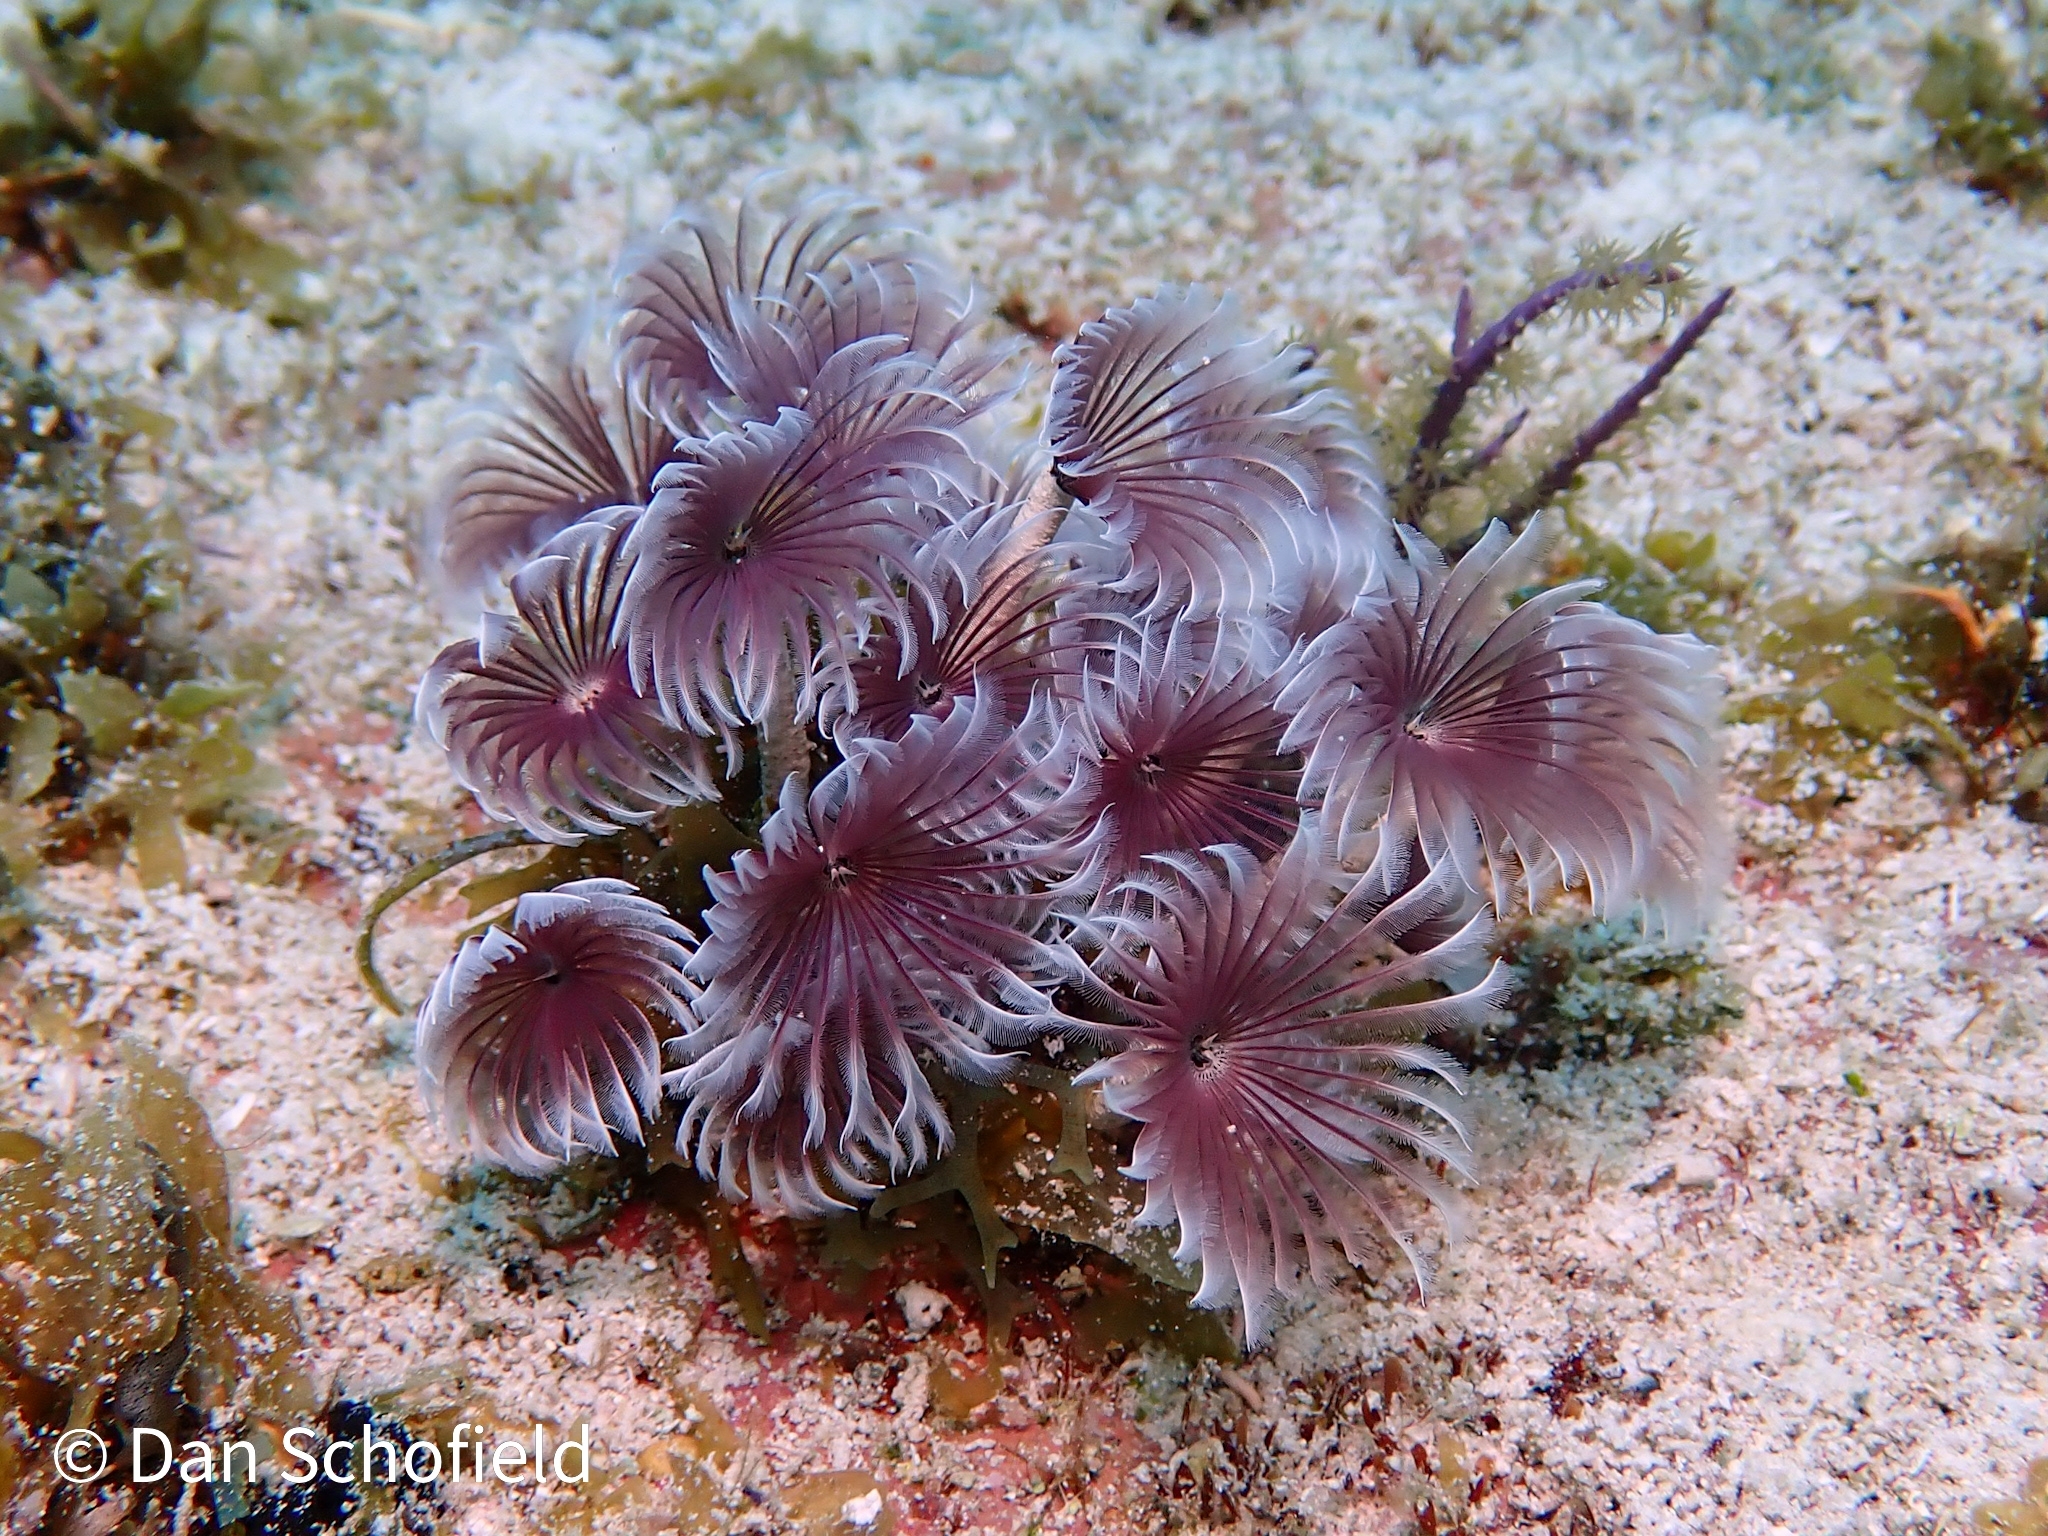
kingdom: Animalia
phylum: Annelida
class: Polychaeta
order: Sabellida
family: Sabellidae
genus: Bispira
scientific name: Bispira brunnea
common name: Social feather duster
